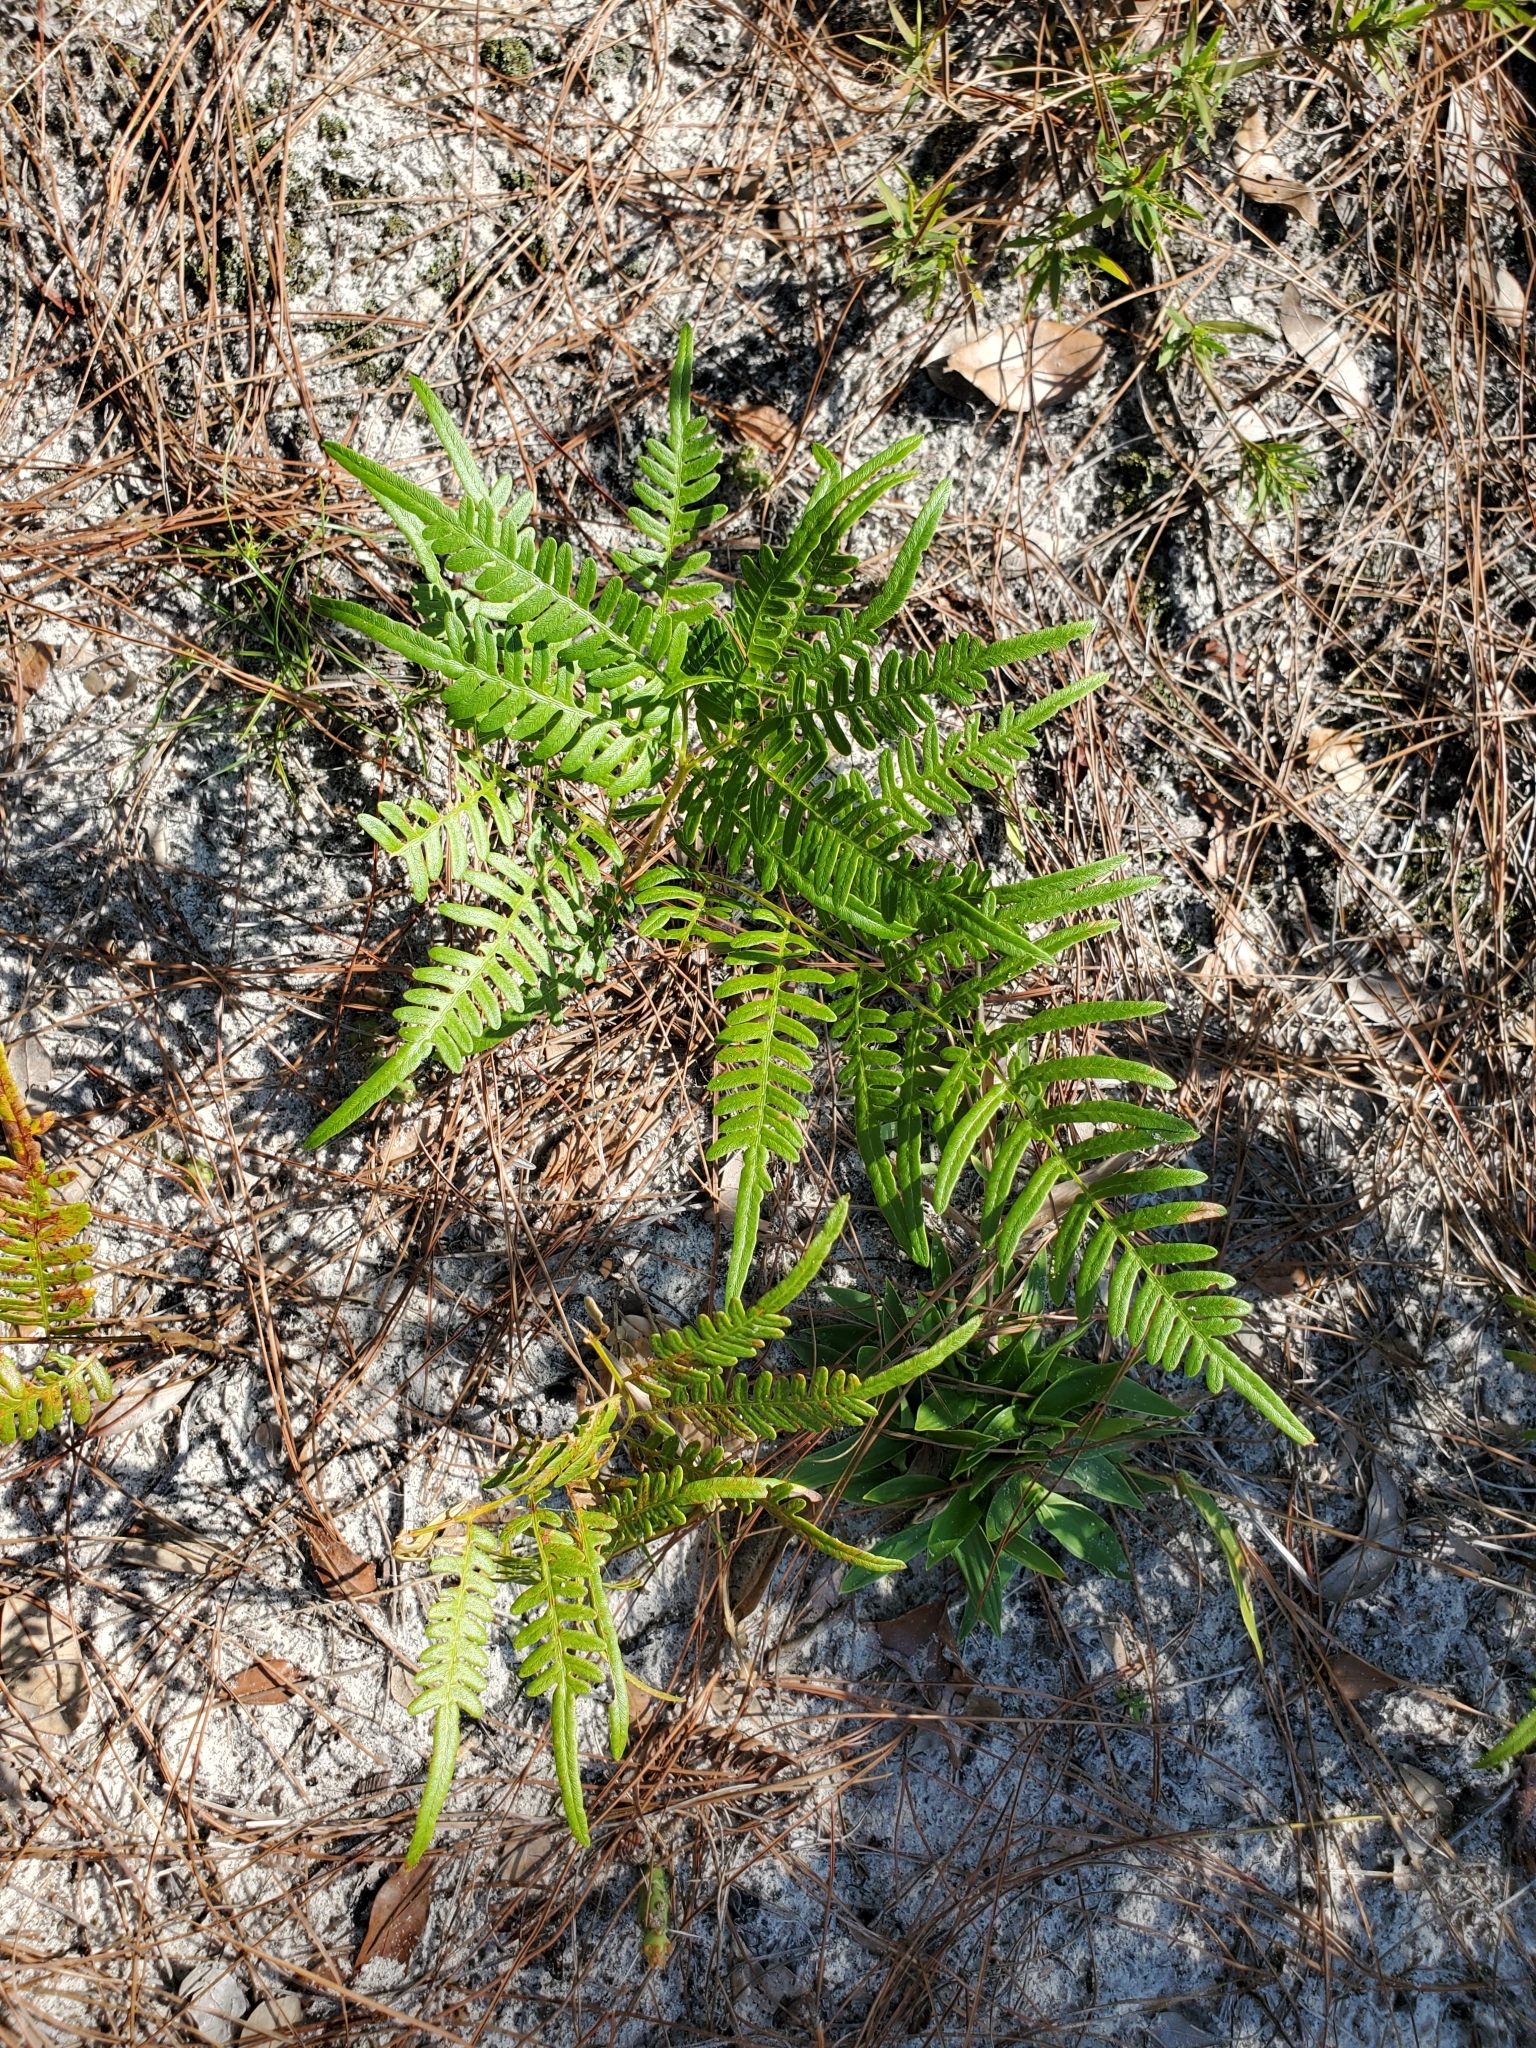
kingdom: Plantae
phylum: Tracheophyta
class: Polypodiopsida
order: Polypodiales
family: Dennstaedtiaceae
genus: Pteridium
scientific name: Pteridium aquilinum
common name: Bracken
